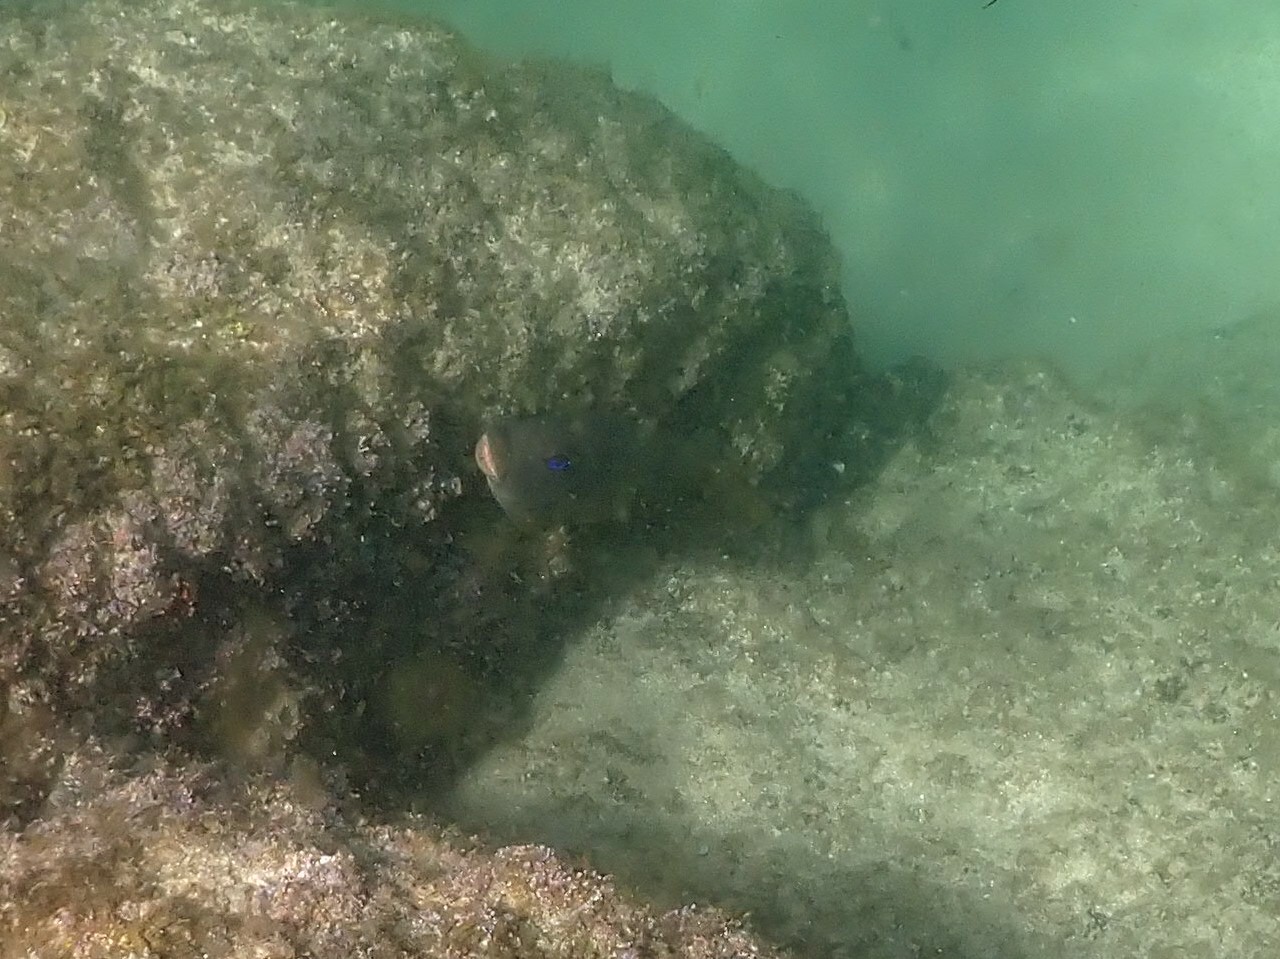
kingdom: Animalia
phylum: Chordata
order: Perciformes
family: Pomacentridae
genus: Microspathodon
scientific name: Microspathodon bairdii
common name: Bumphead damselfish
